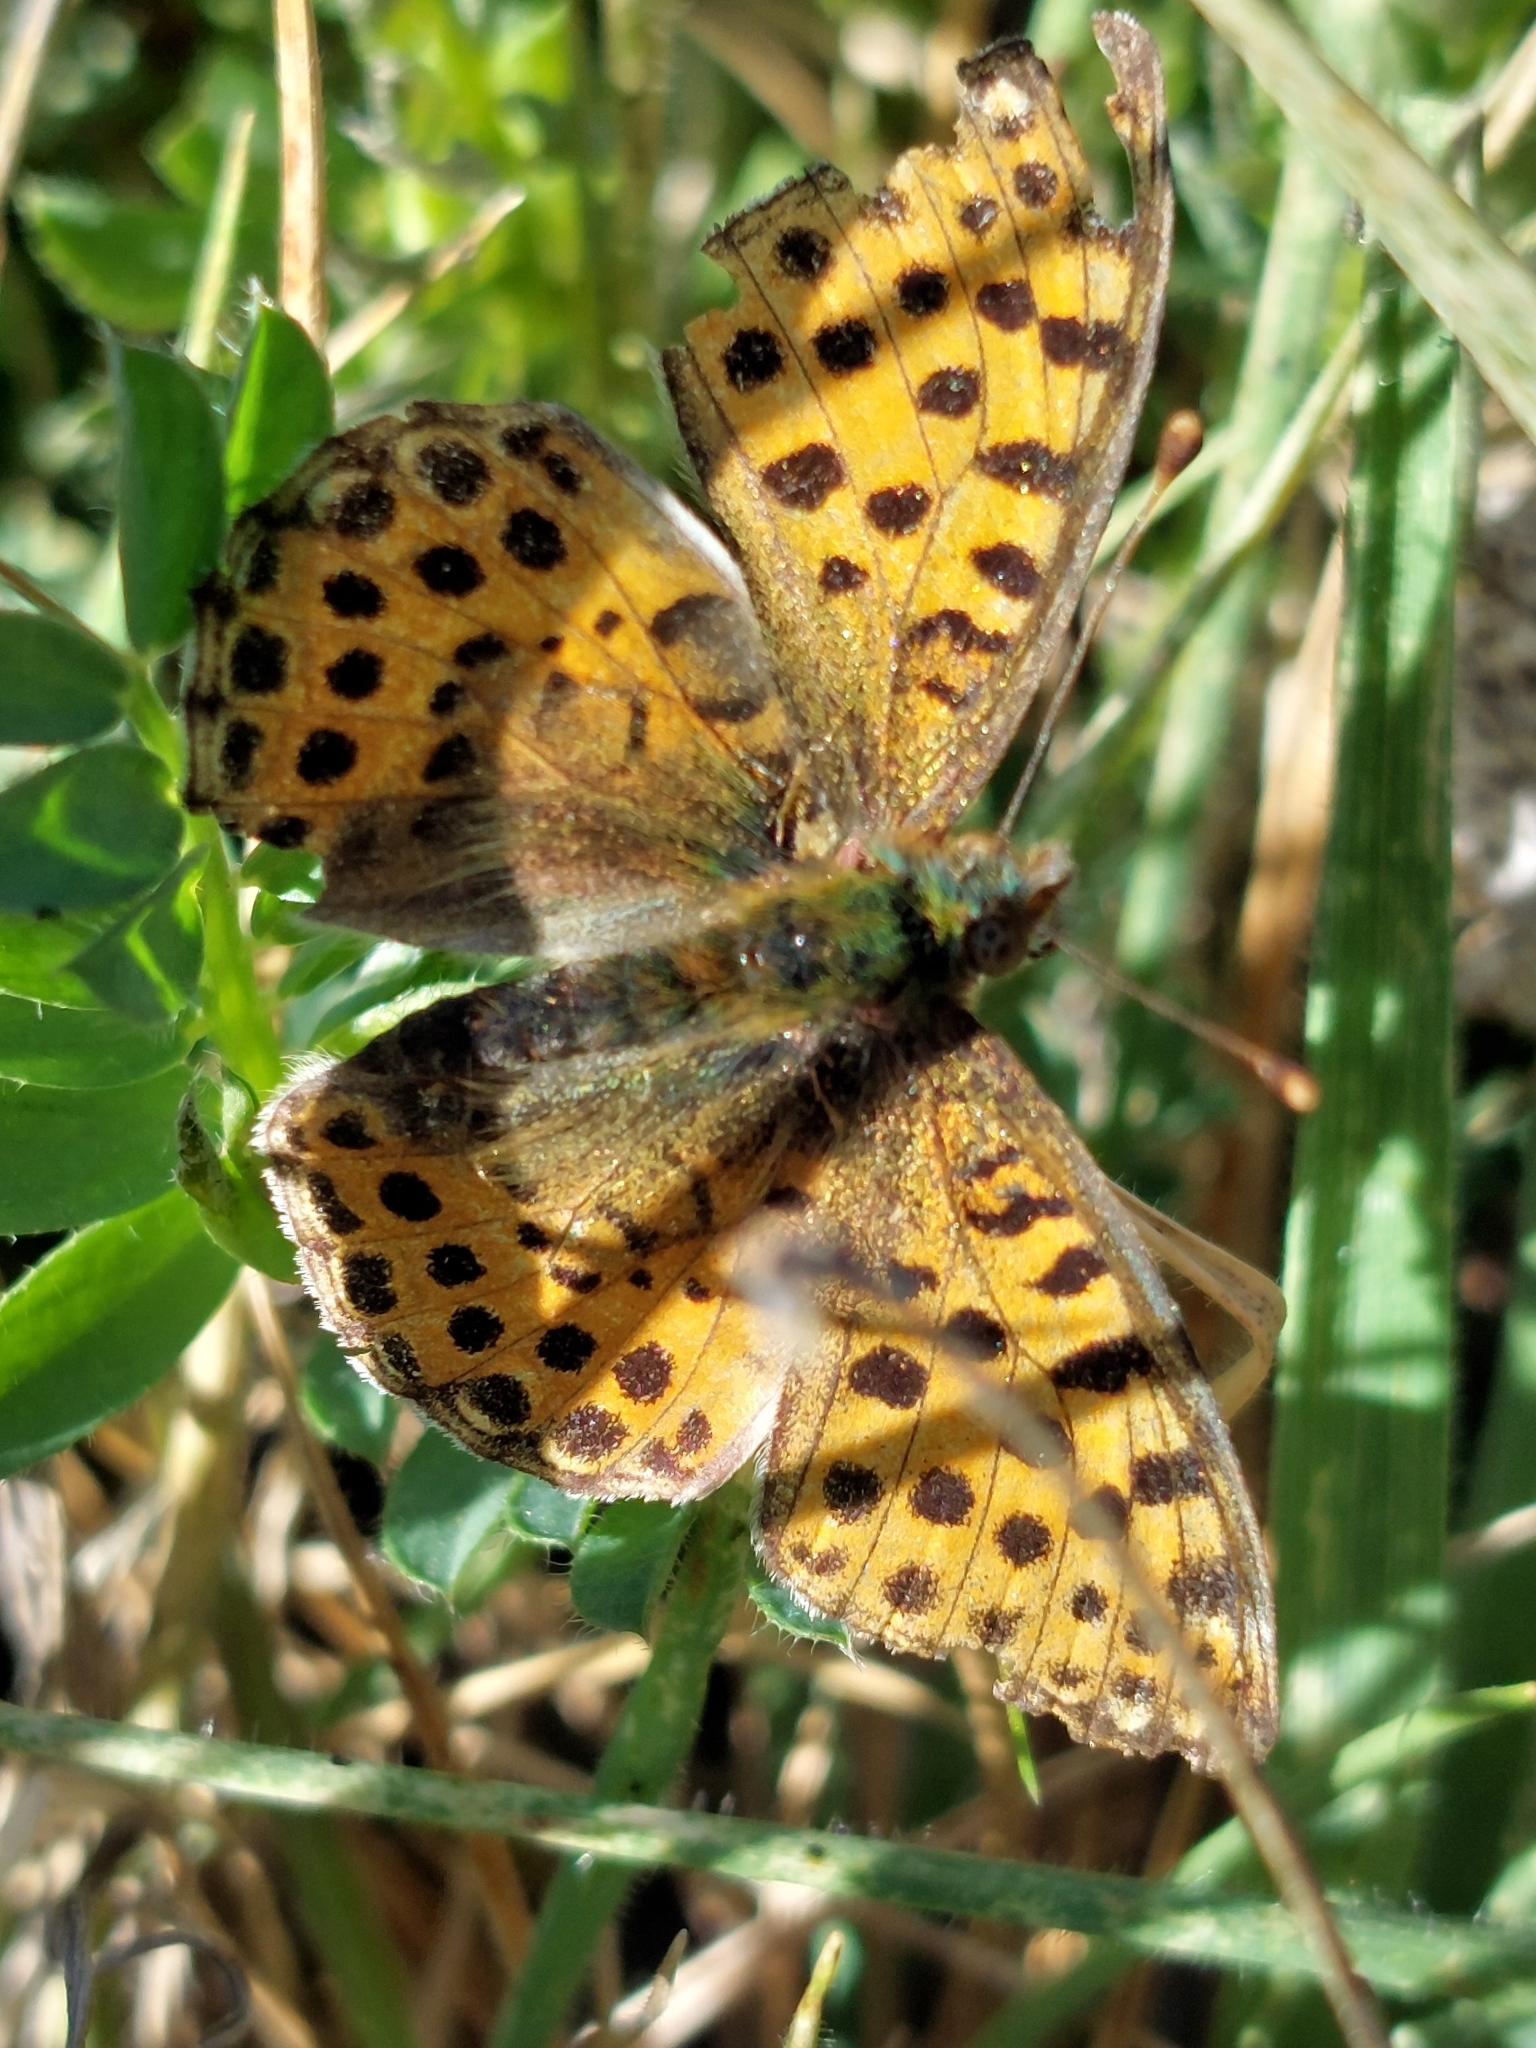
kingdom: Animalia
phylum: Arthropoda
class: Insecta
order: Lepidoptera
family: Nymphalidae
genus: Issoria
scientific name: Issoria lathonia
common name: Queen of spain fritillary
